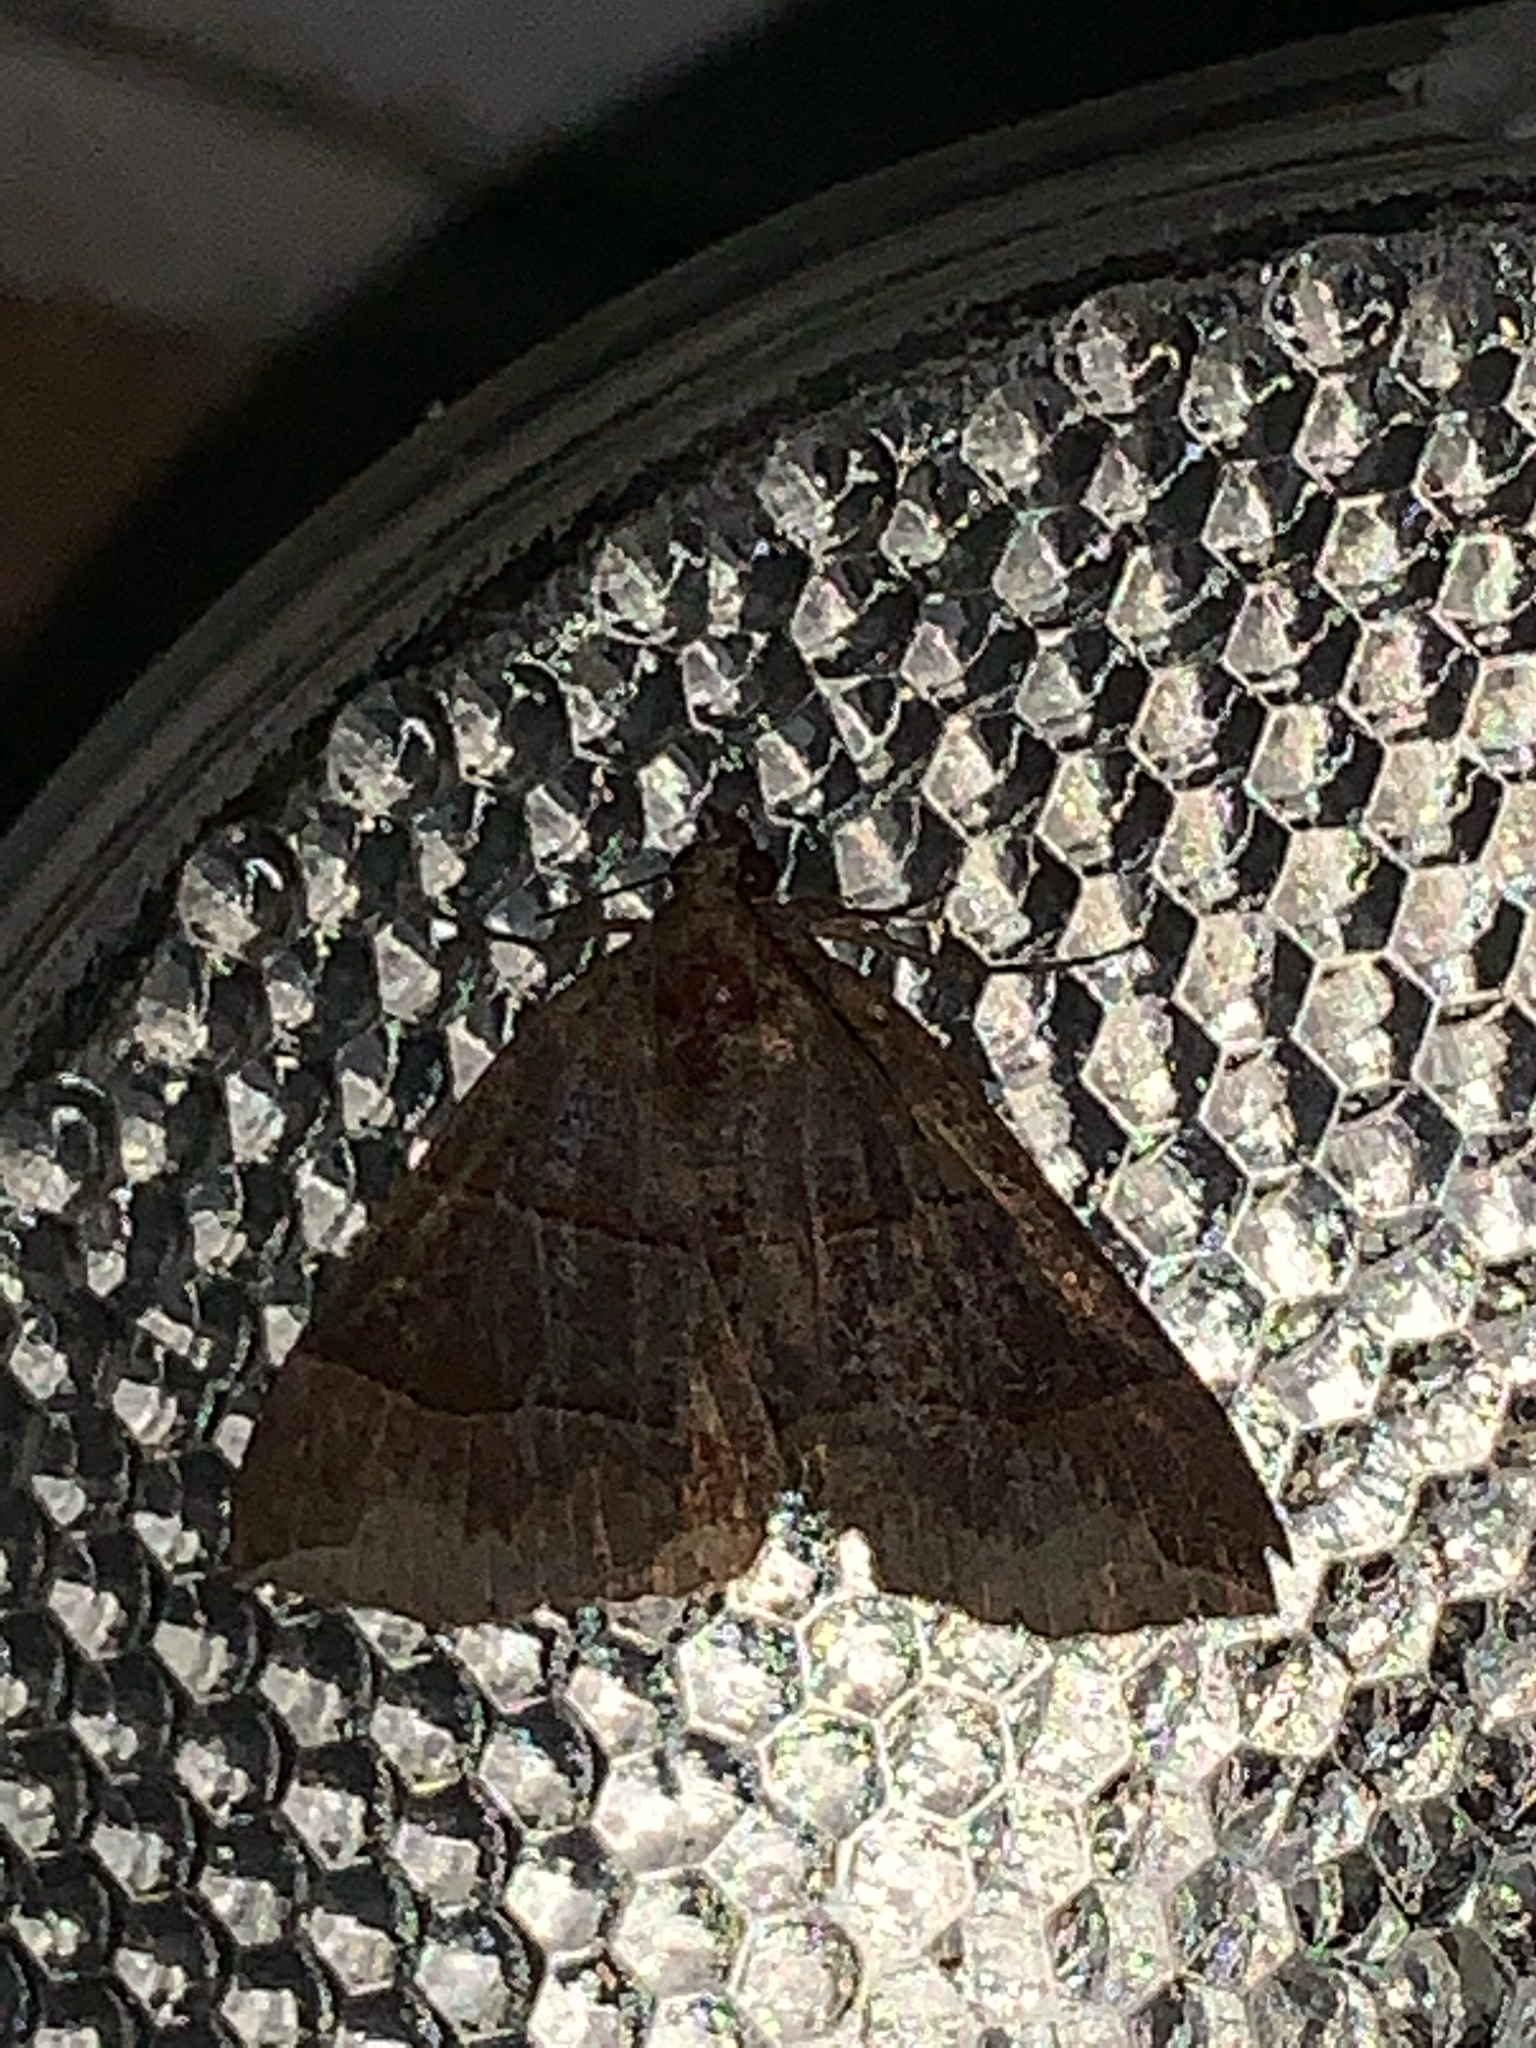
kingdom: Animalia
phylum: Arthropoda
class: Insecta
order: Lepidoptera
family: Erebidae
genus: Parallelia
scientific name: Parallelia bistriaris
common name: Maple looper moth
